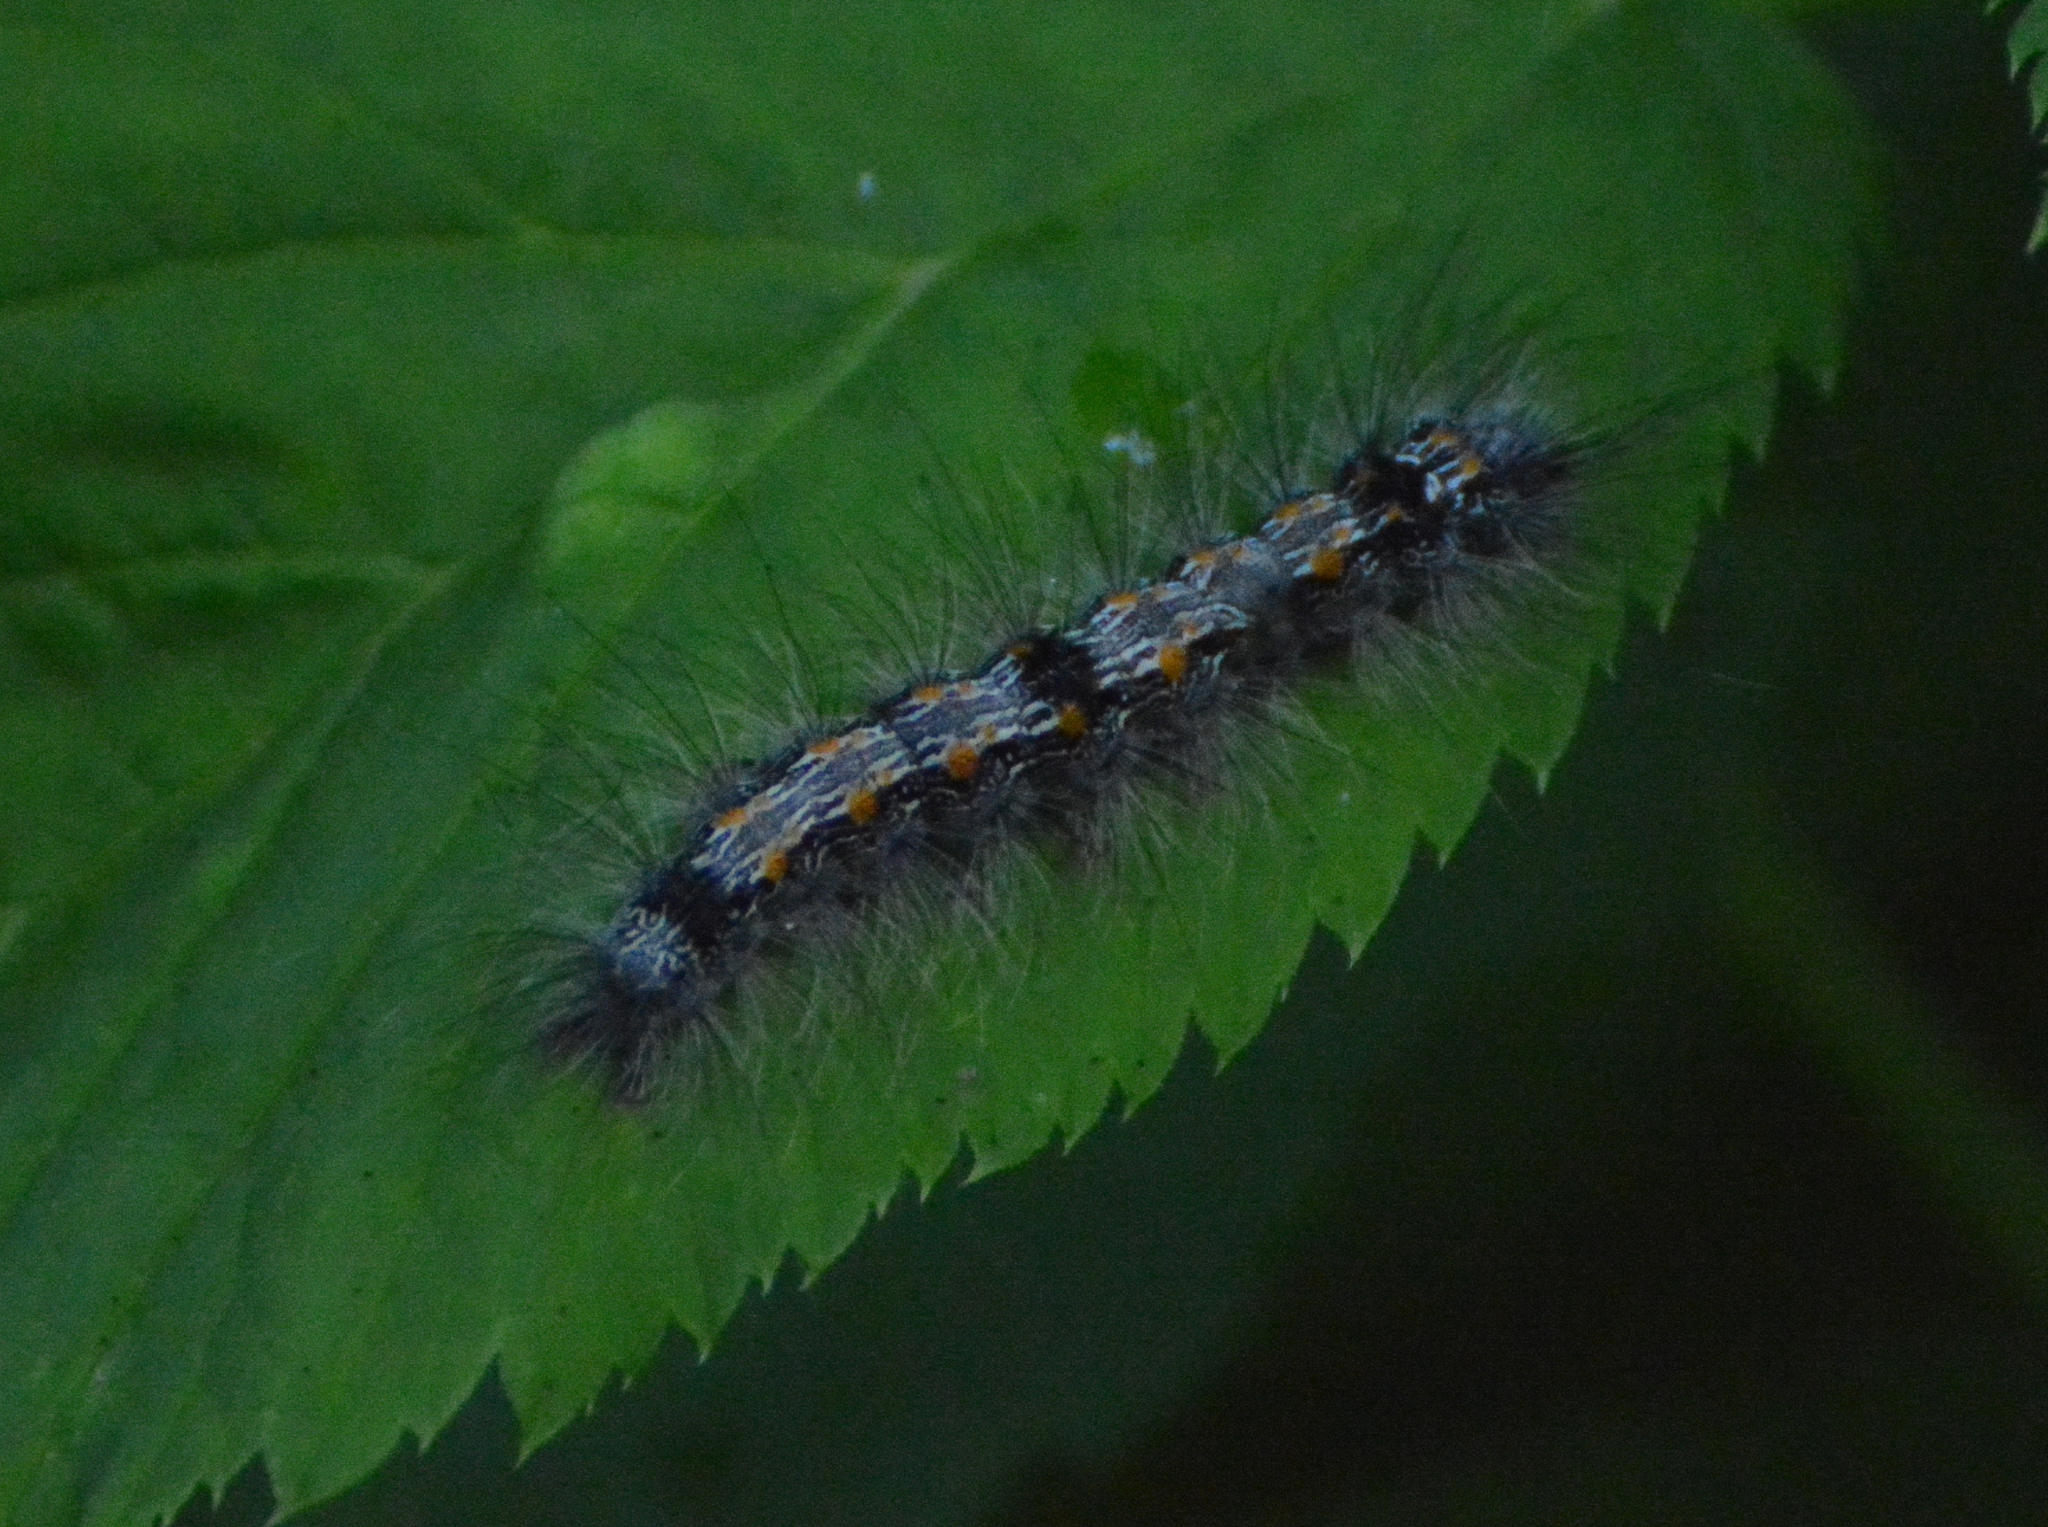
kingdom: Animalia
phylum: Arthropoda
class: Insecta
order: Lepidoptera
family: Erebidae
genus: Lithosia
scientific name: Lithosia quadra
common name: Four-spotted footman
